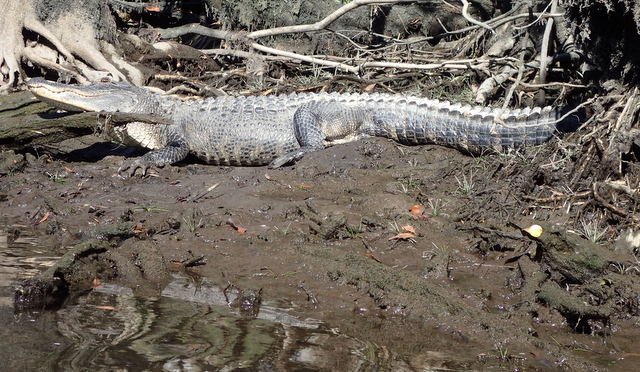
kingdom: Animalia
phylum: Chordata
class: Crocodylia
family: Alligatoridae
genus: Alligator
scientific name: Alligator mississippiensis
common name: American alligator
